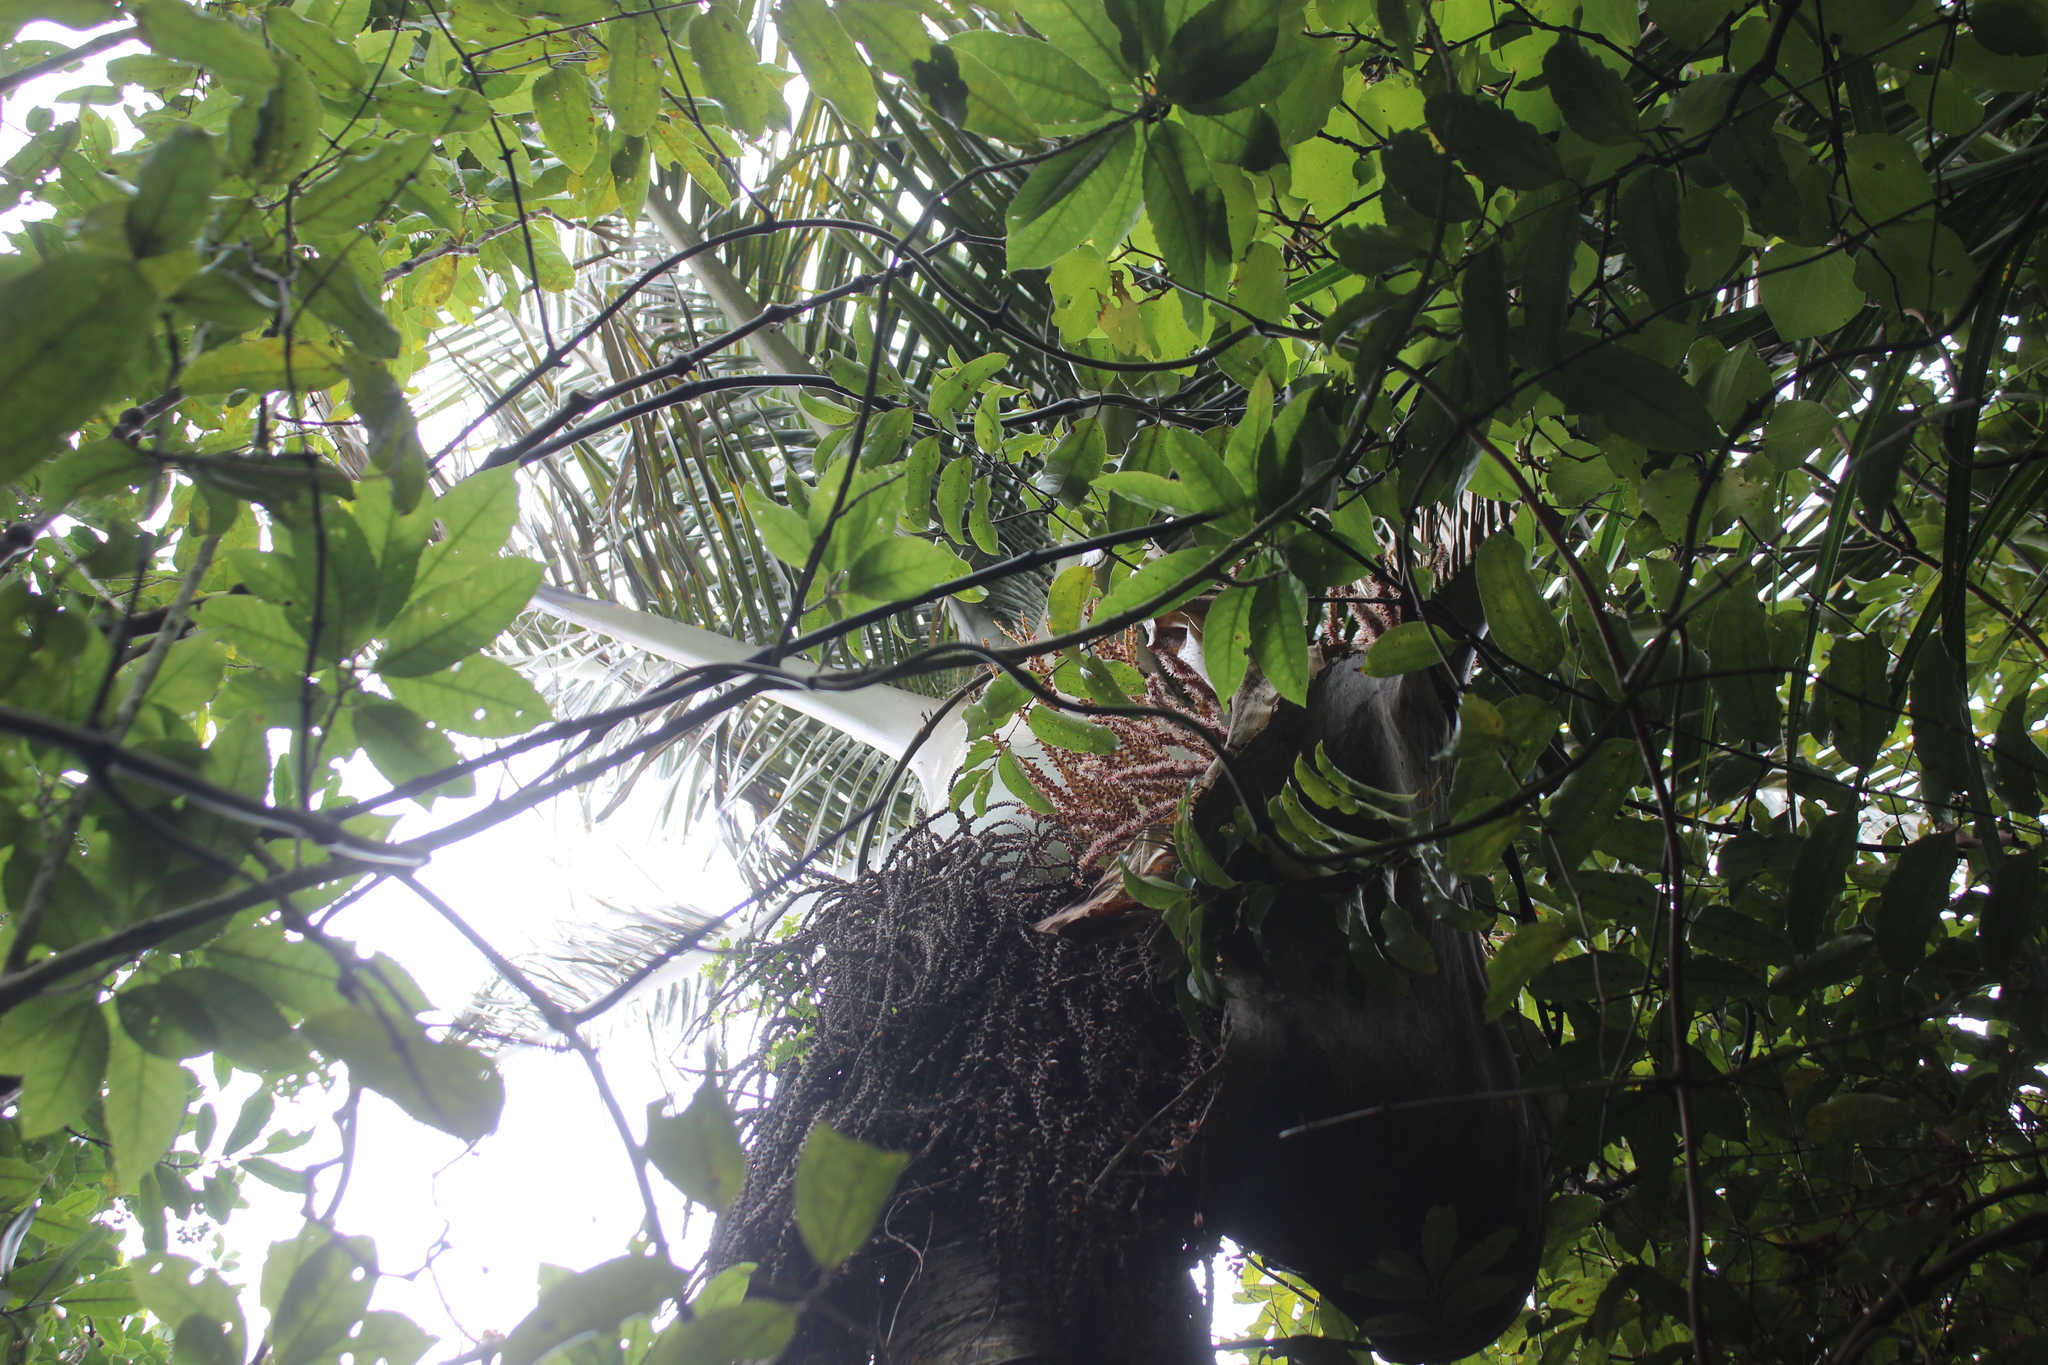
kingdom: Plantae
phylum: Tracheophyta
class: Liliopsida
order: Arecales
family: Arecaceae
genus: Rhopalostylis
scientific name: Rhopalostylis sapida
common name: Feather-duster palm
